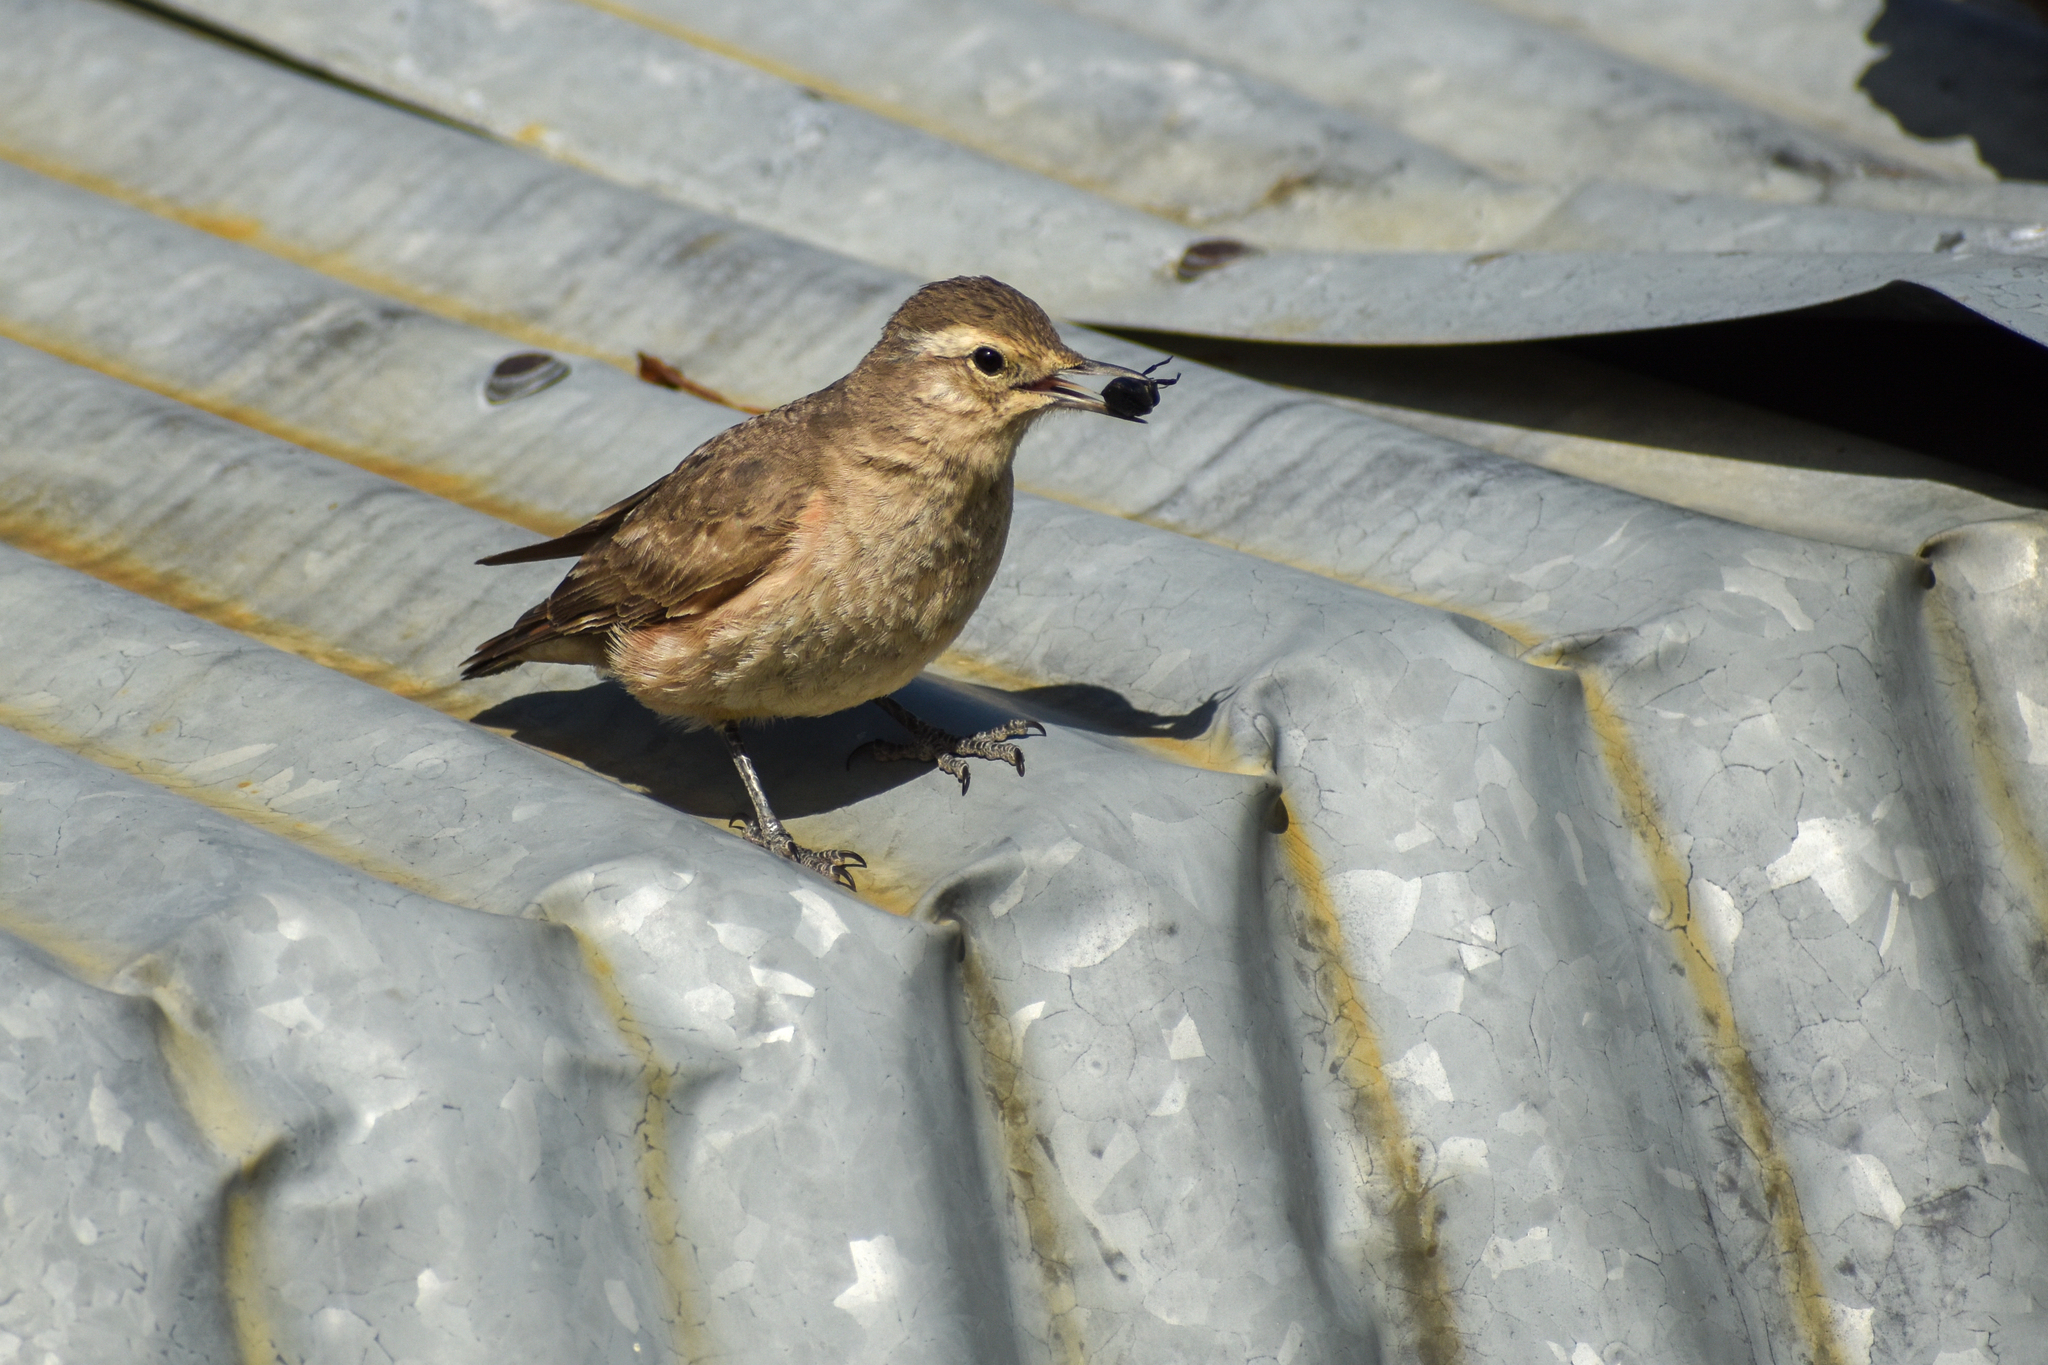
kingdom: Animalia
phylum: Chordata
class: Aves
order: Passeriformes
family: Furnariidae
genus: Geositta
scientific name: Geositta rufipennis
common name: Rufous-banded miner
